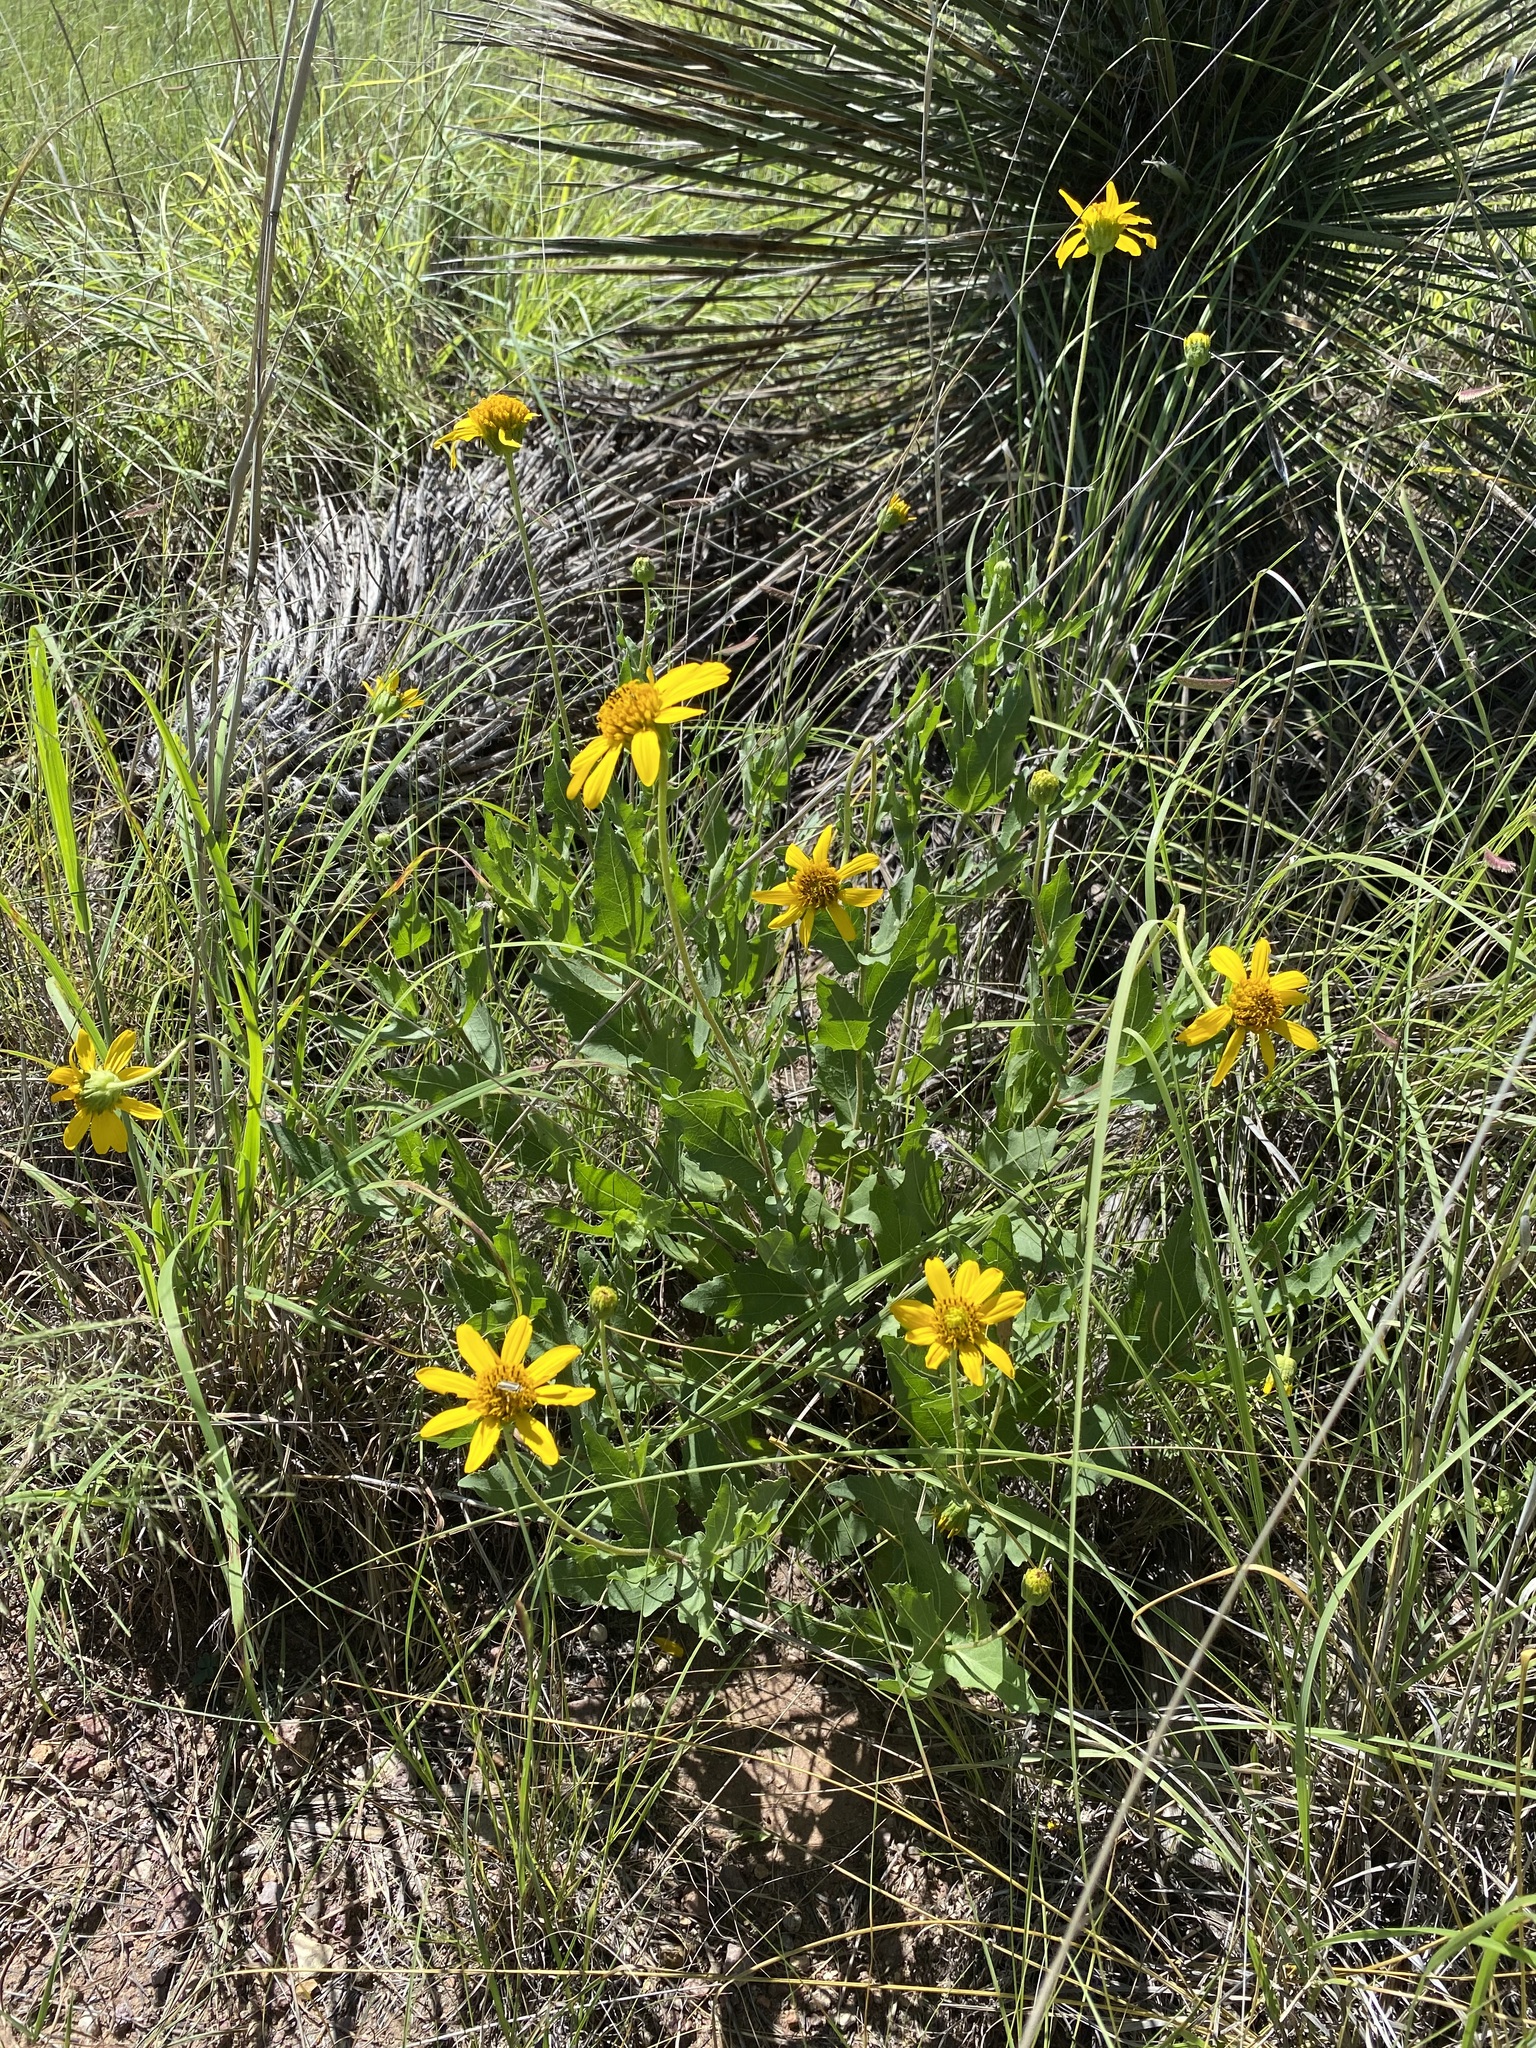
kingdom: Plantae
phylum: Tracheophyta
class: Magnoliopsida
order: Asterales
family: Asteraceae
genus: Verbesina
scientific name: Verbesina rothrockii
